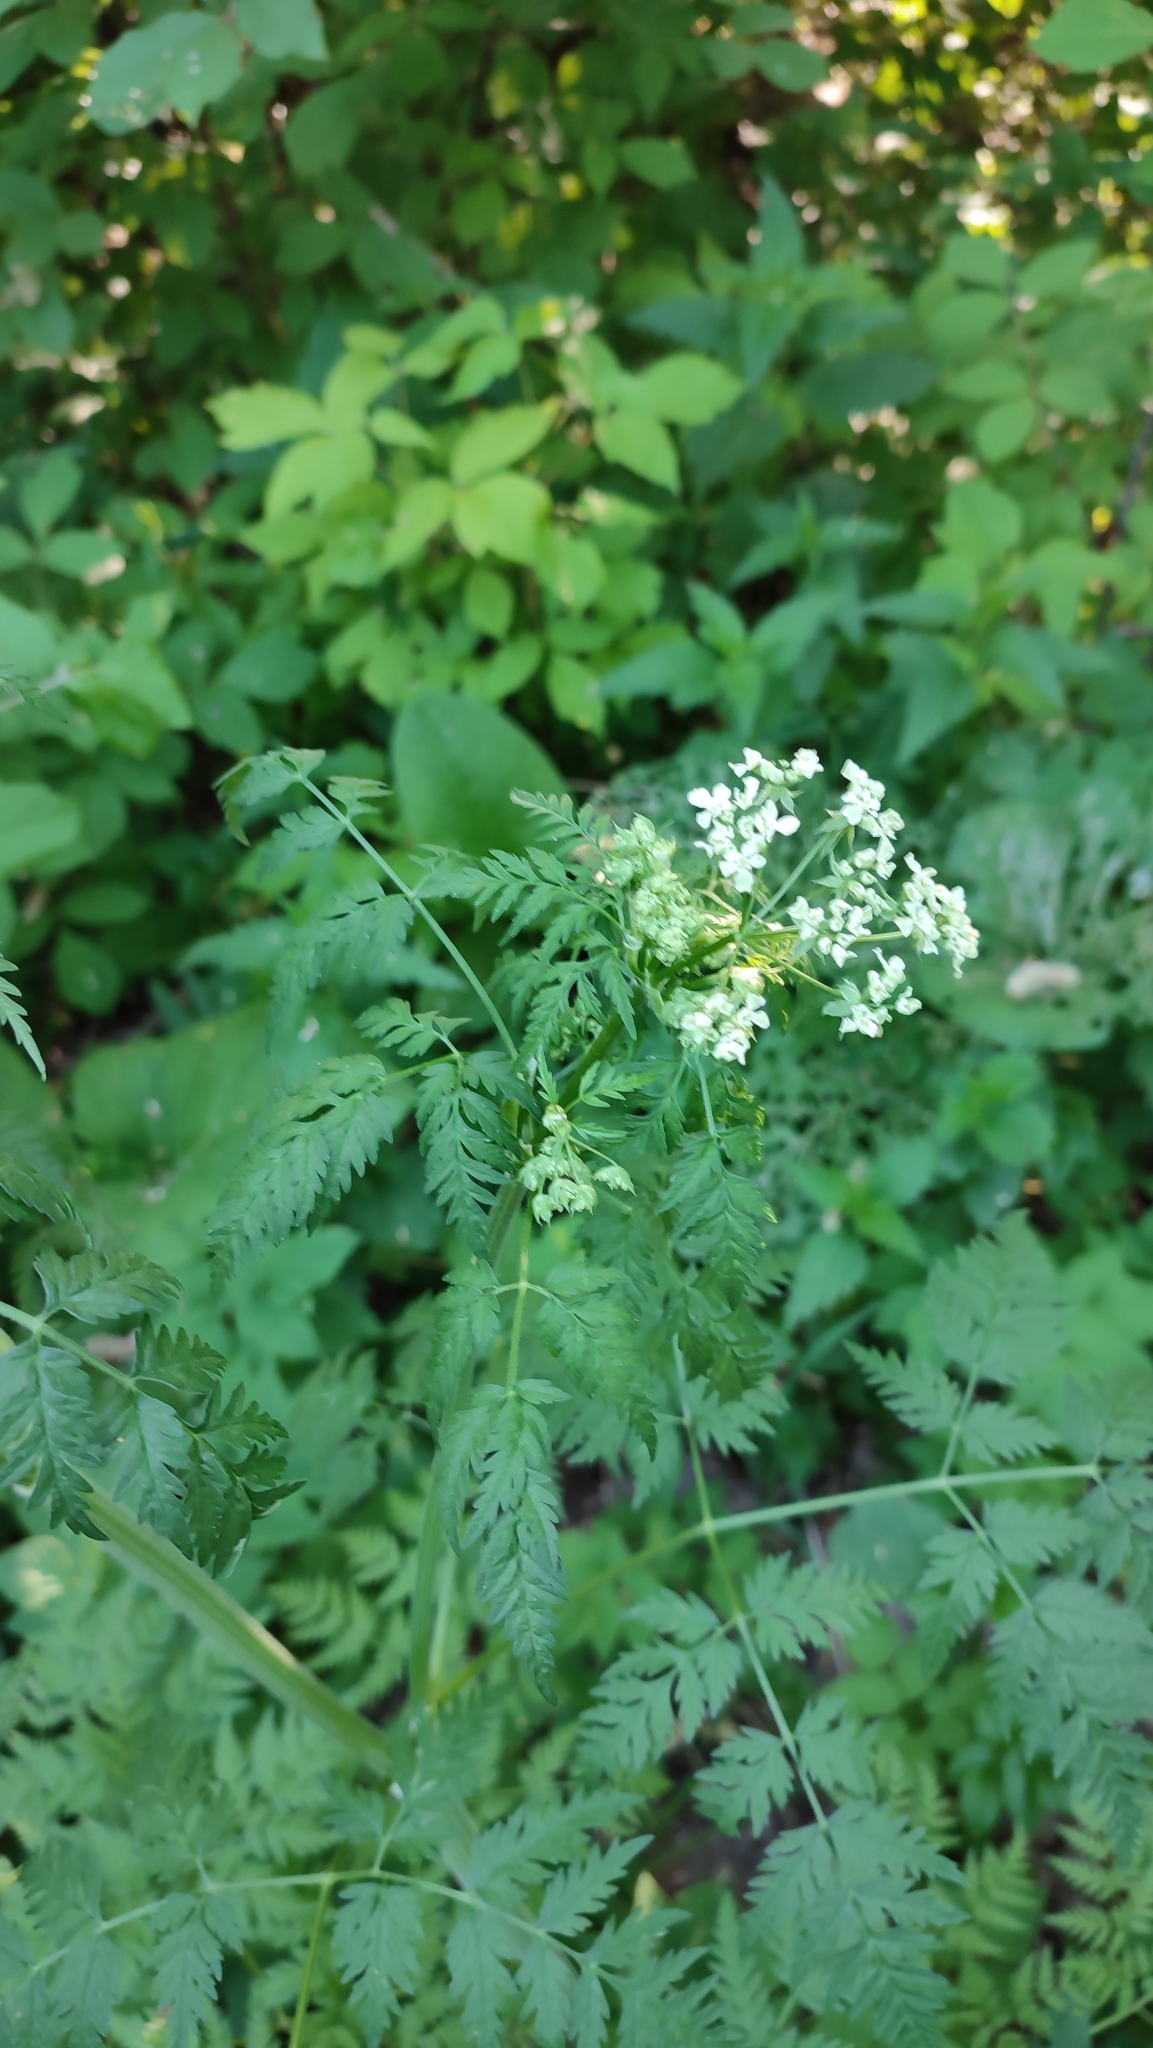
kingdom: Plantae
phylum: Tracheophyta
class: Magnoliopsida
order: Apiales
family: Apiaceae
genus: Anthriscus
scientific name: Anthriscus sylvestris
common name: Cow parsley
